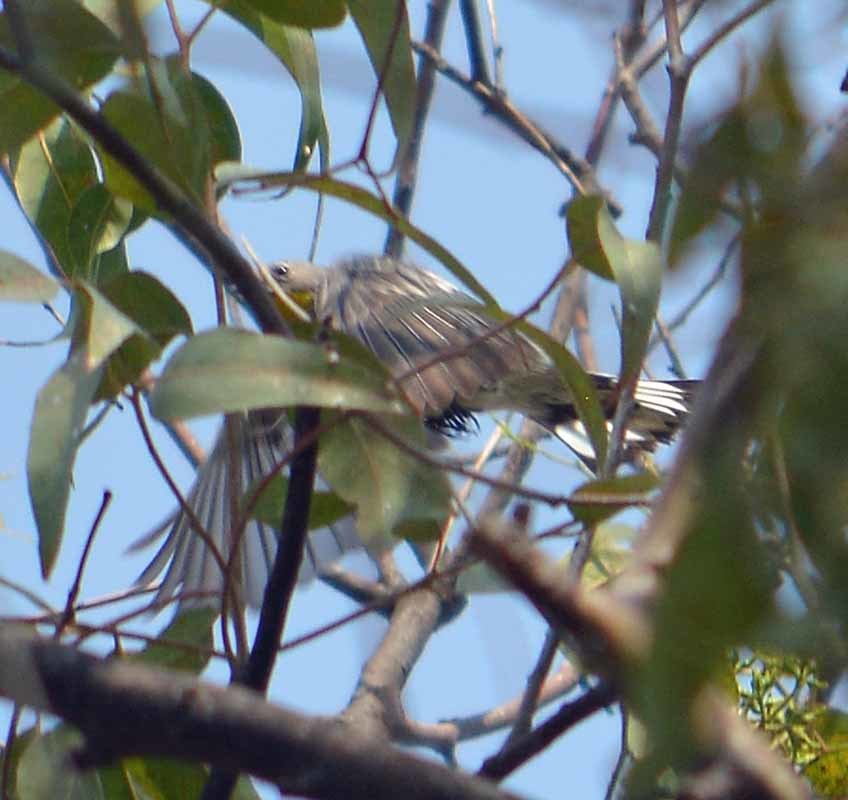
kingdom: Animalia
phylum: Chordata
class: Aves
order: Passeriformes
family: Parulidae
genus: Setophaga
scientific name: Setophaga coronata
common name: Myrtle warbler
